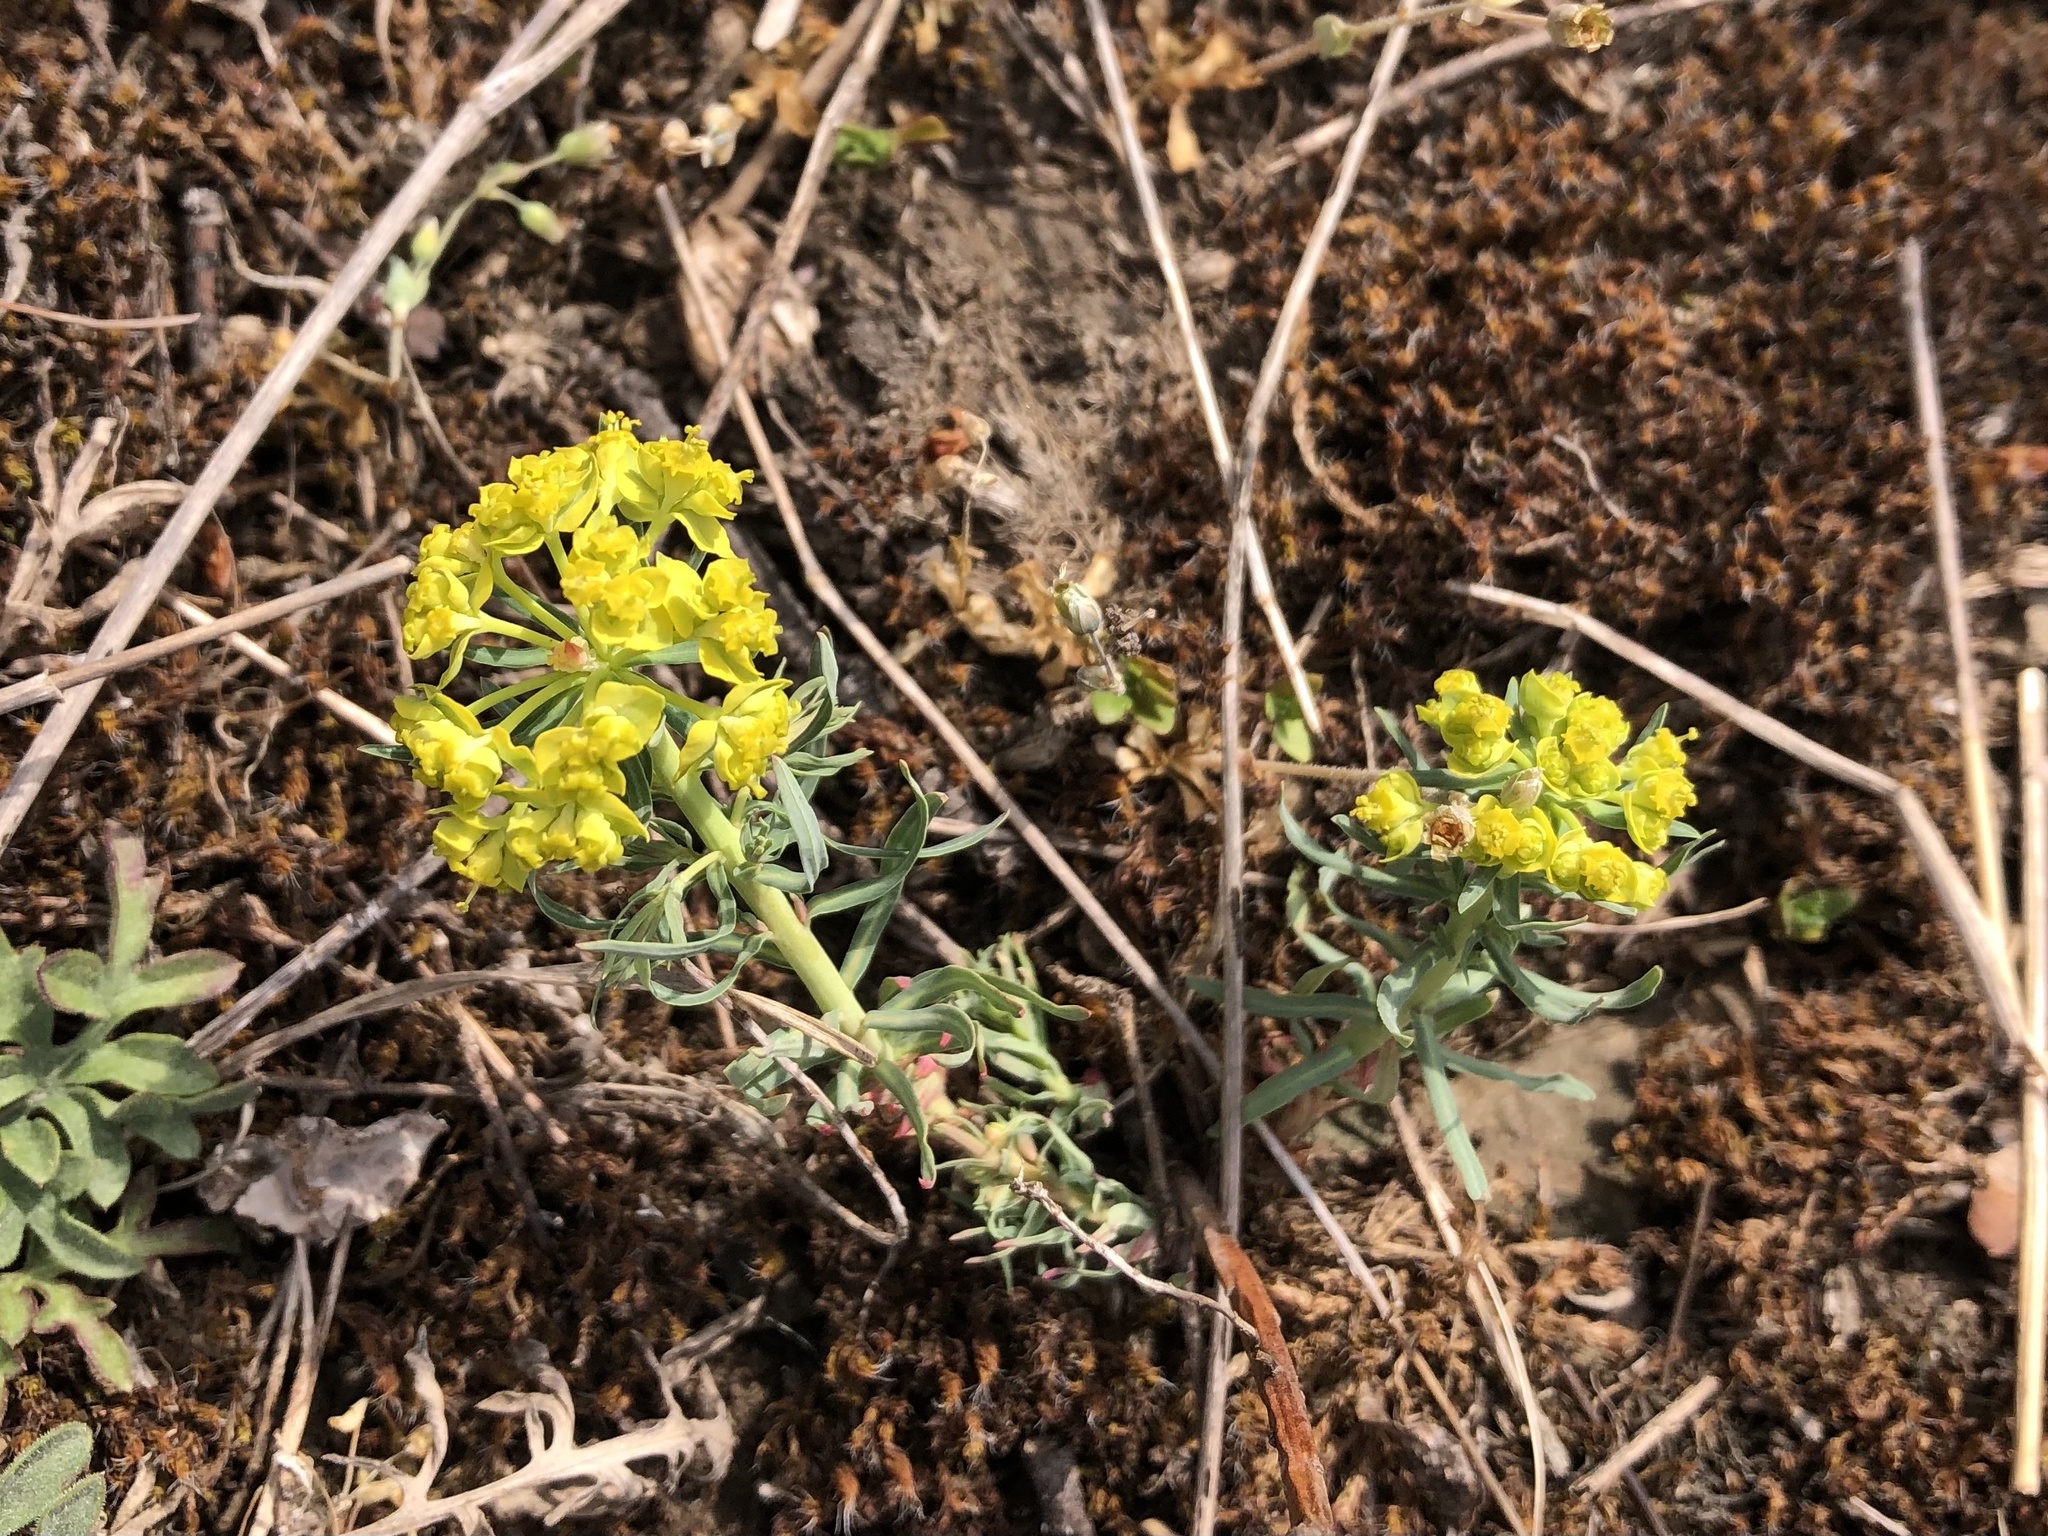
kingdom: Plantae
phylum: Tracheophyta
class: Magnoliopsida
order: Malpighiales
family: Euphorbiaceae
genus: Euphorbia
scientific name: Euphorbia cyparissias
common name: Cypress spurge
